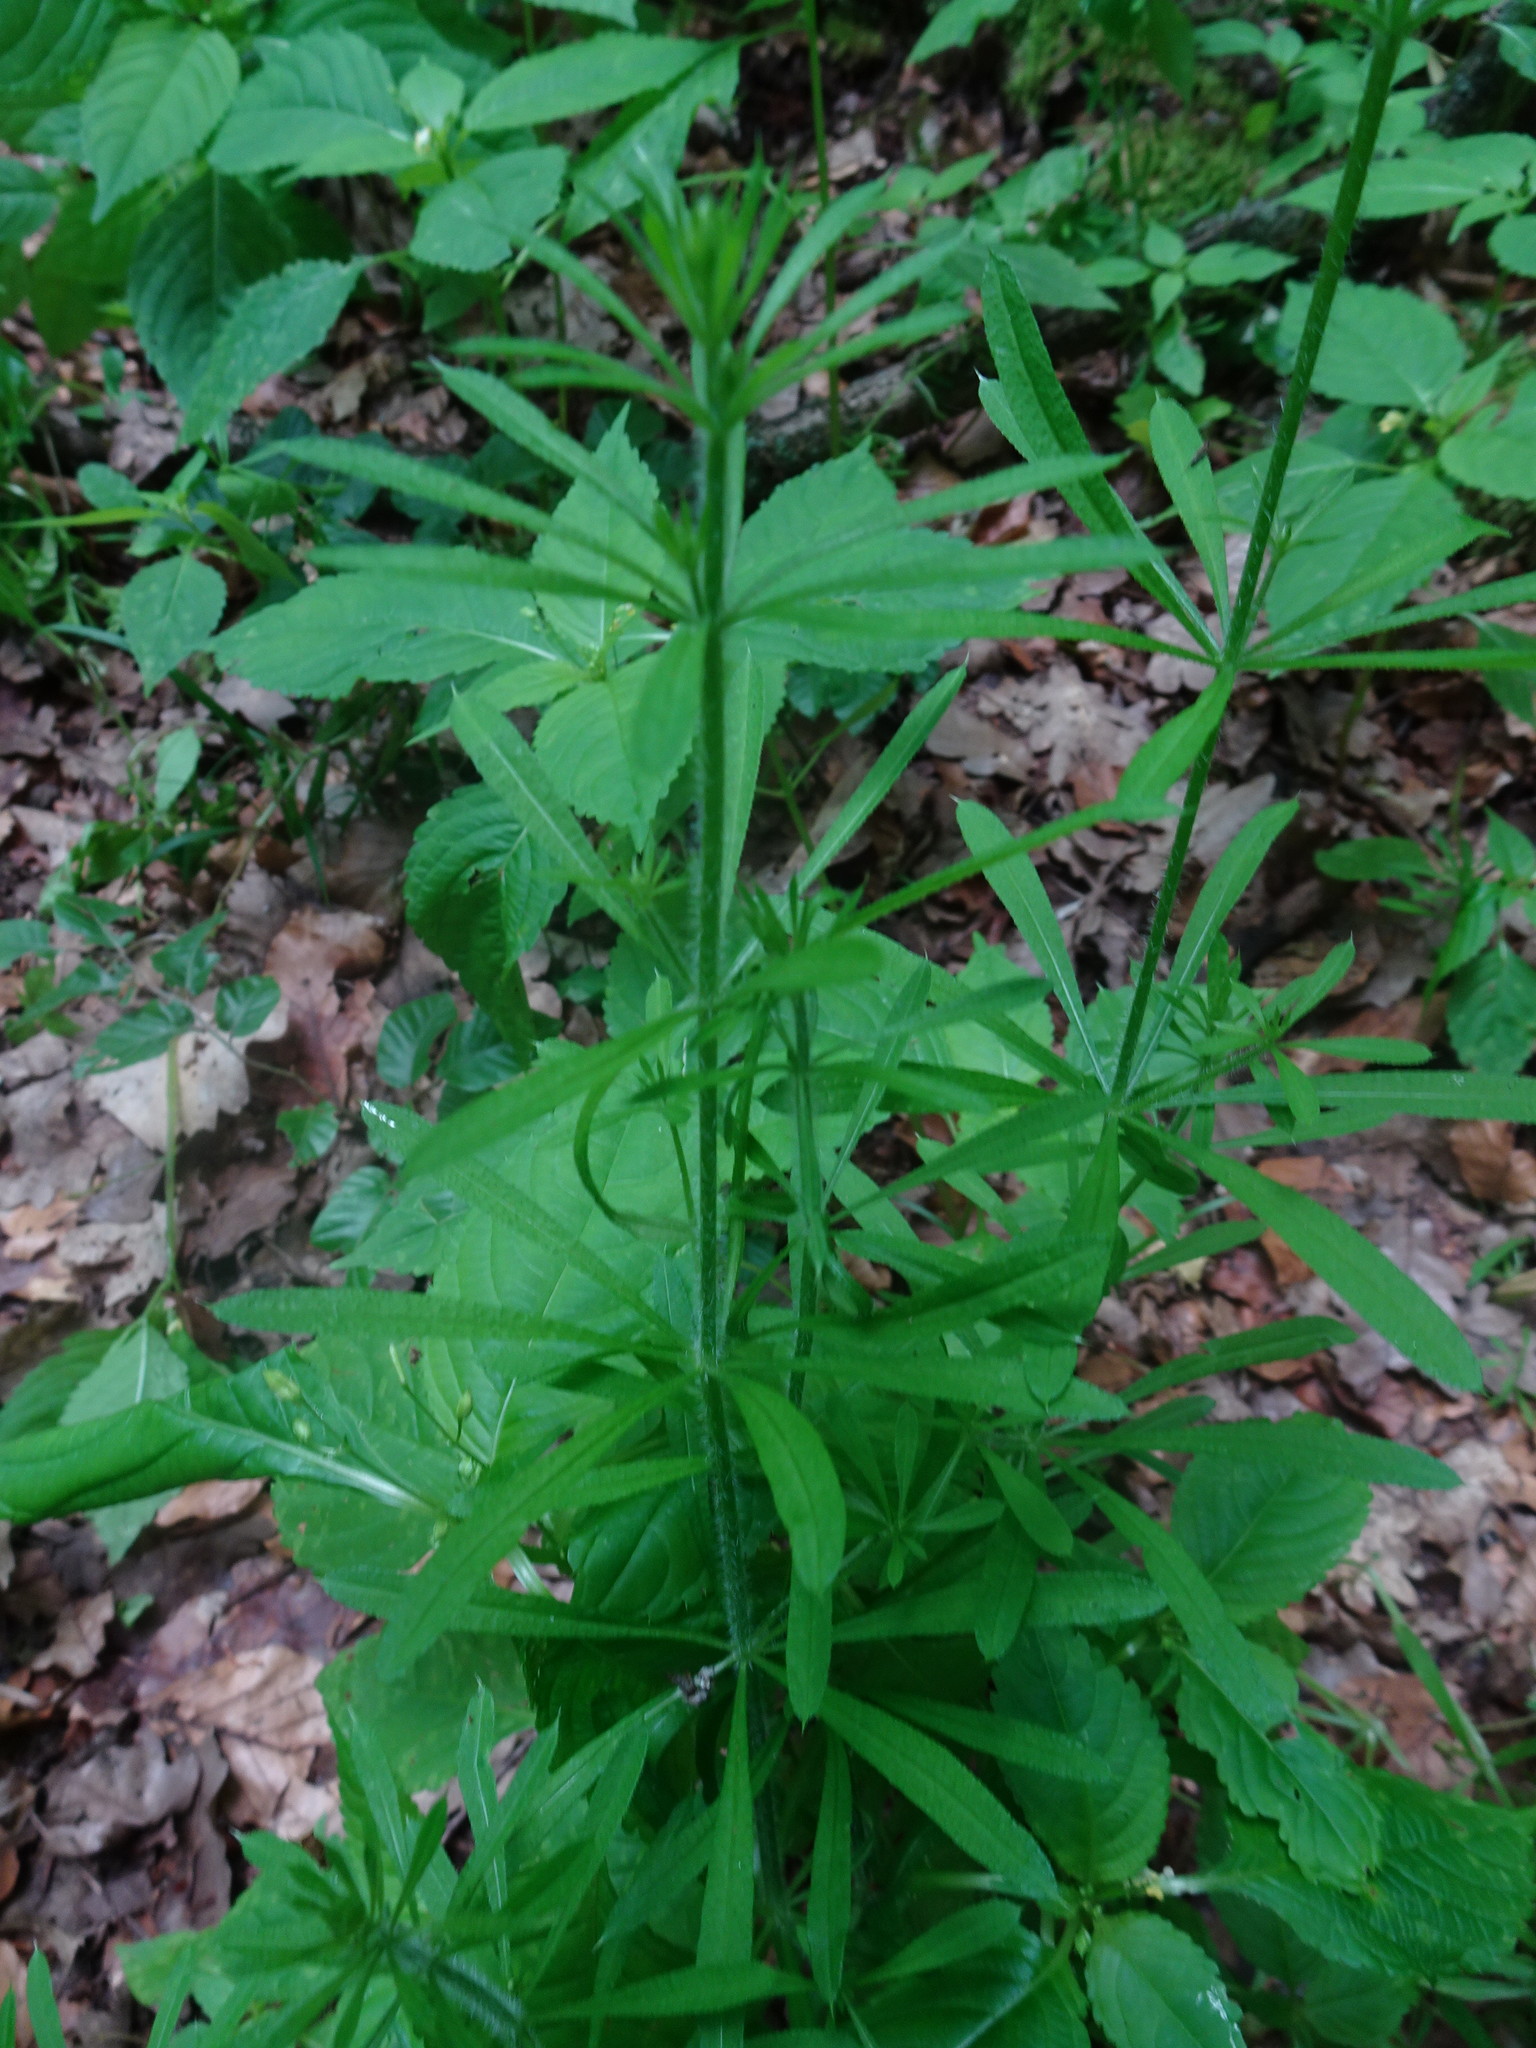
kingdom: Plantae
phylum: Tracheophyta
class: Magnoliopsida
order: Gentianales
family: Rubiaceae
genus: Galium
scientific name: Galium aparine
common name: Cleavers
